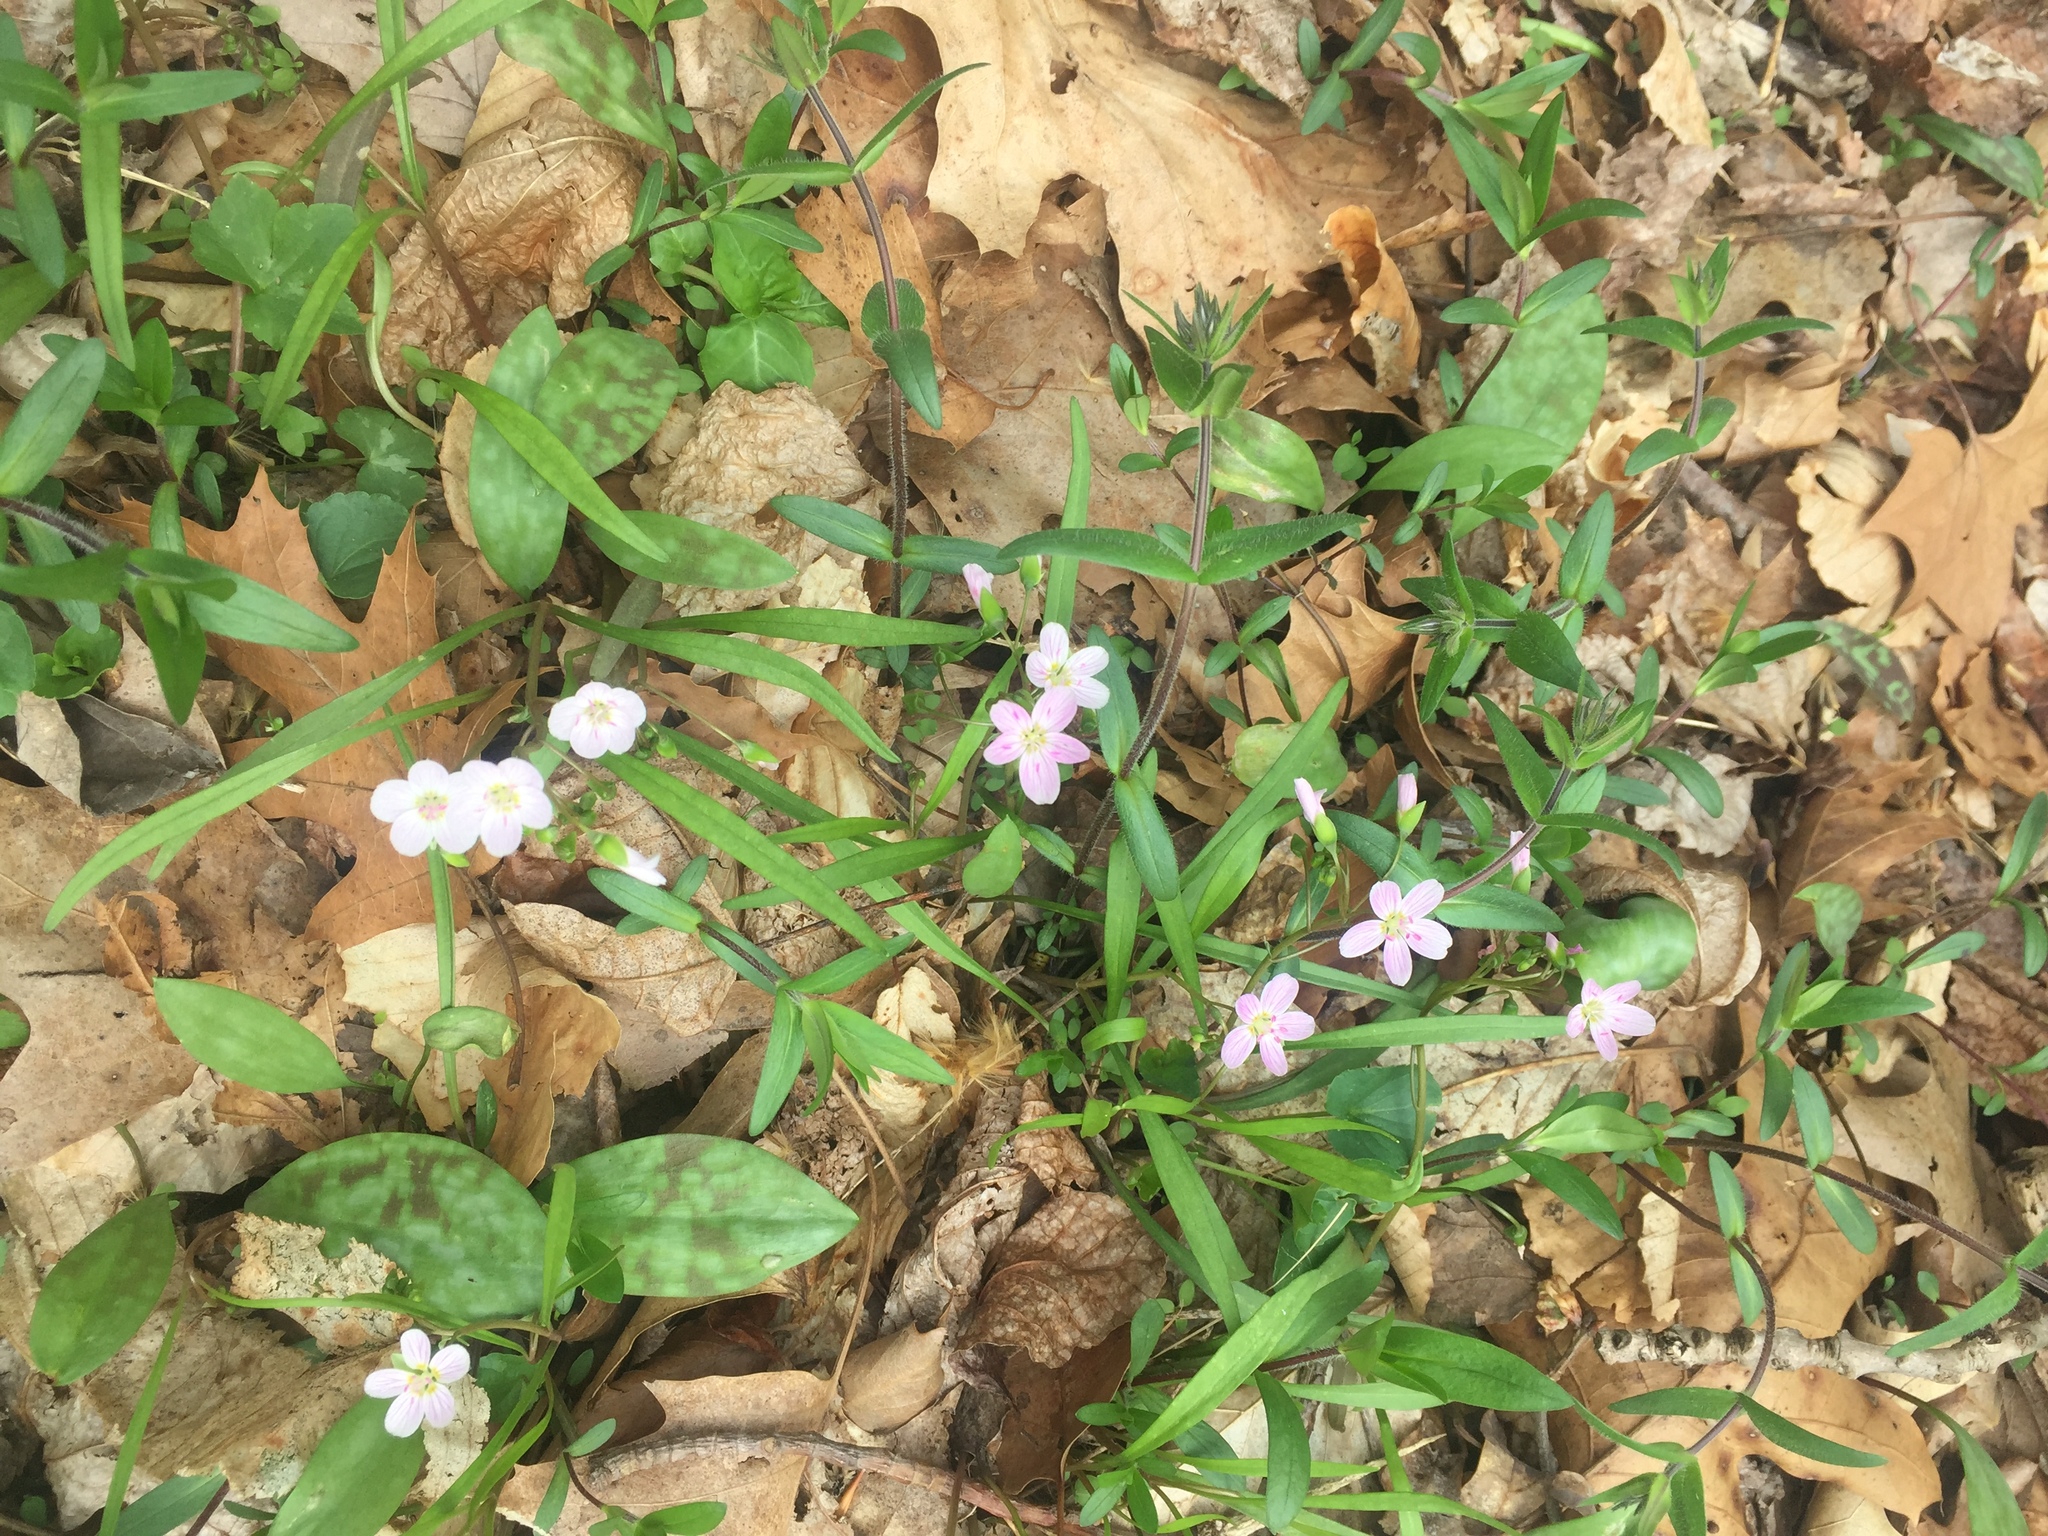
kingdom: Plantae
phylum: Tracheophyta
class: Magnoliopsida
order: Caryophyllales
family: Montiaceae
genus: Claytonia
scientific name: Claytonia virginica
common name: Virginia springbeauty
